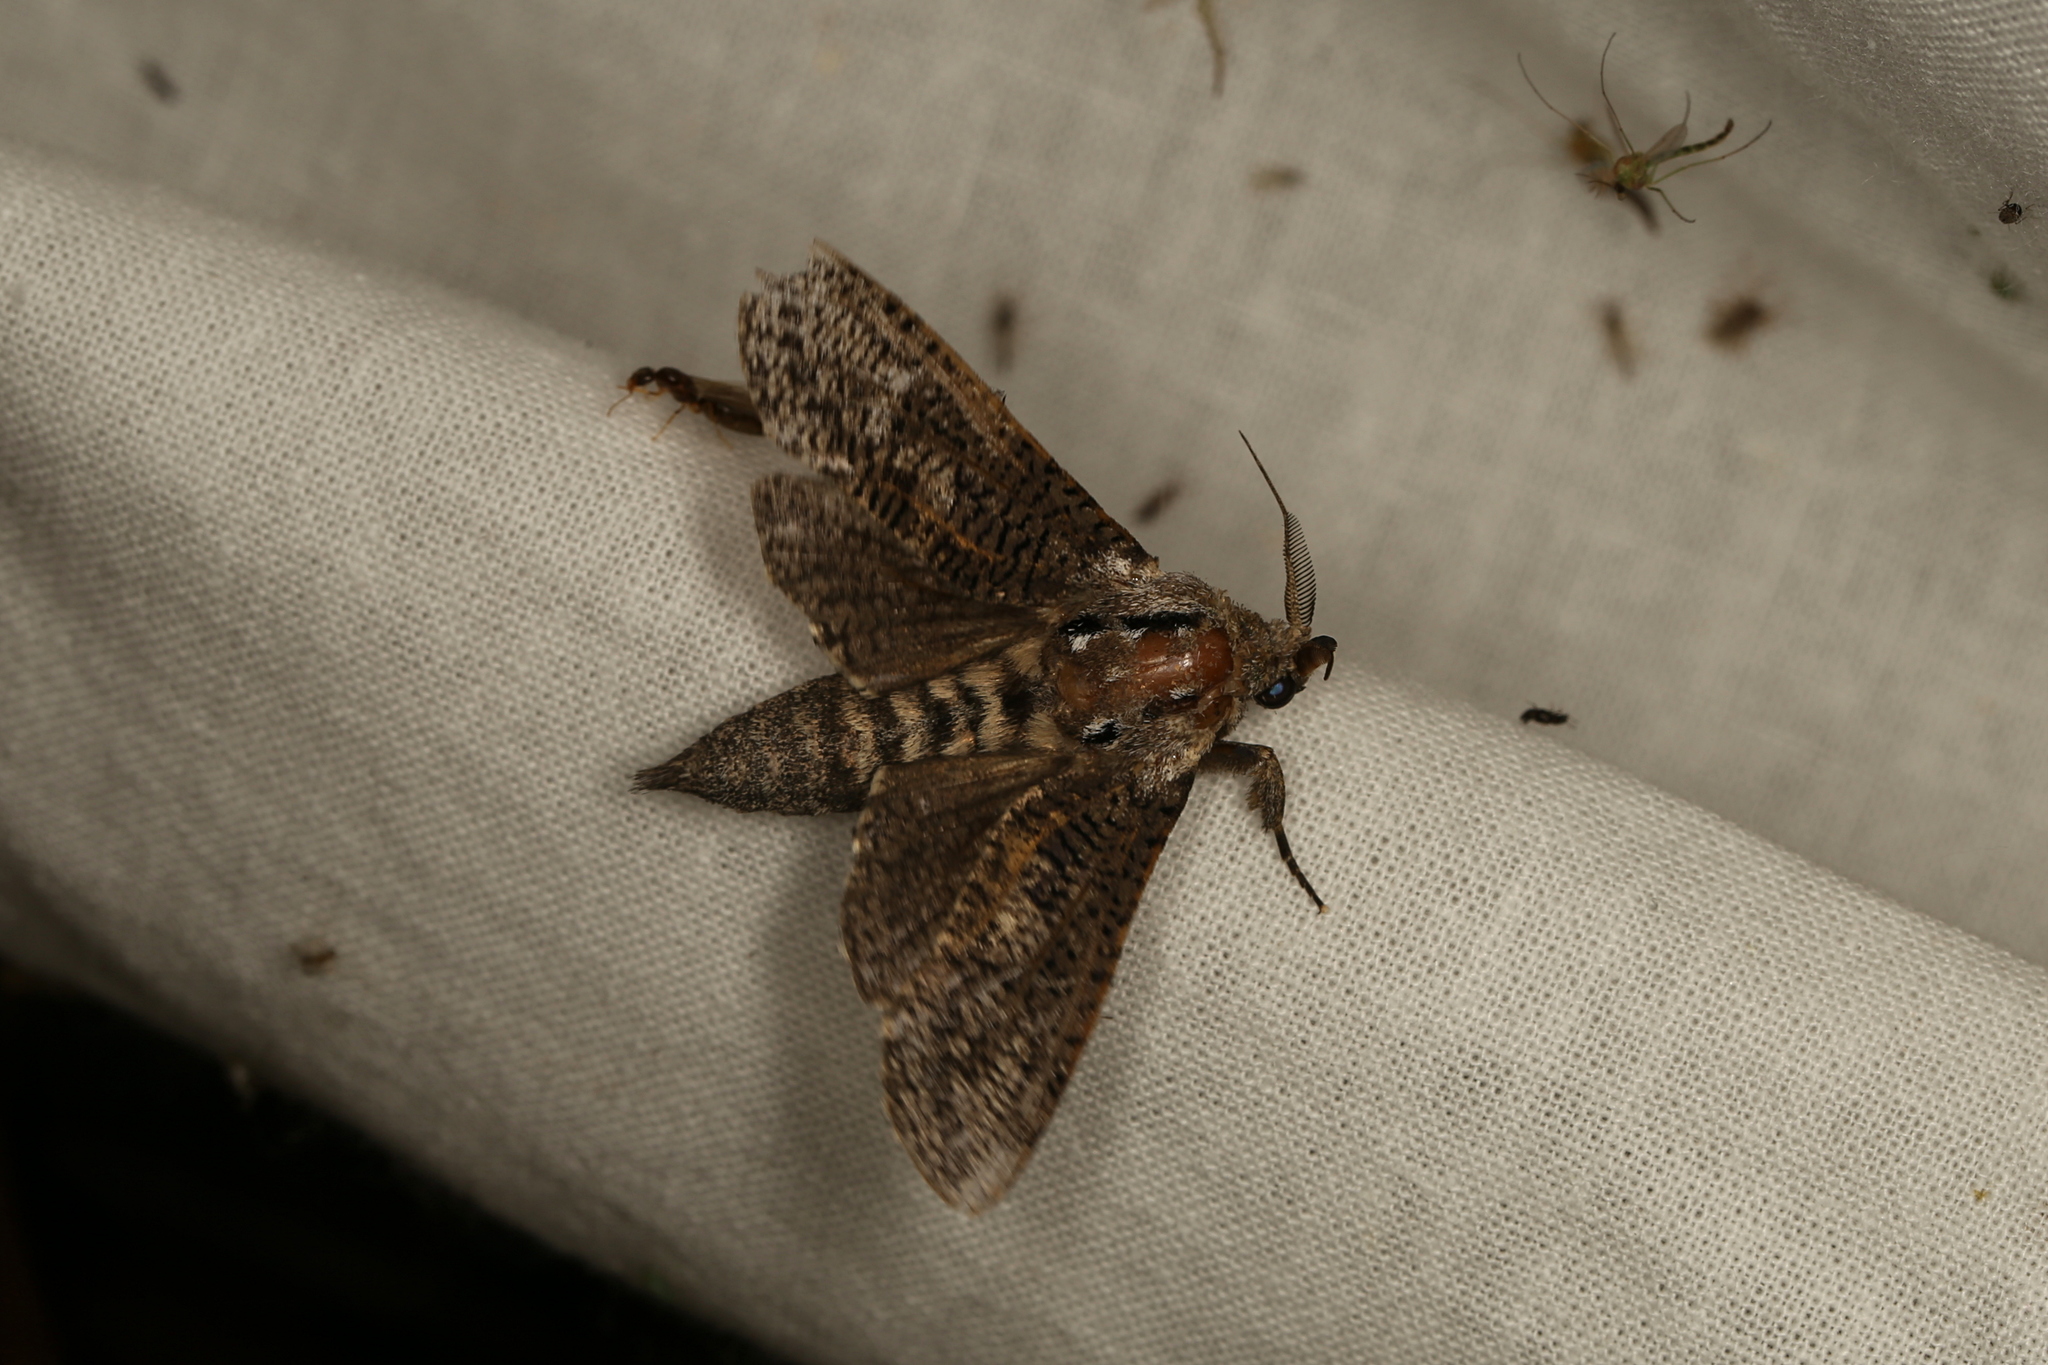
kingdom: Animalia
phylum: Arthropoda
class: Insecta
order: Lepidoptera
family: Cossidae
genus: Endoxyla
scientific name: Endoxyla
